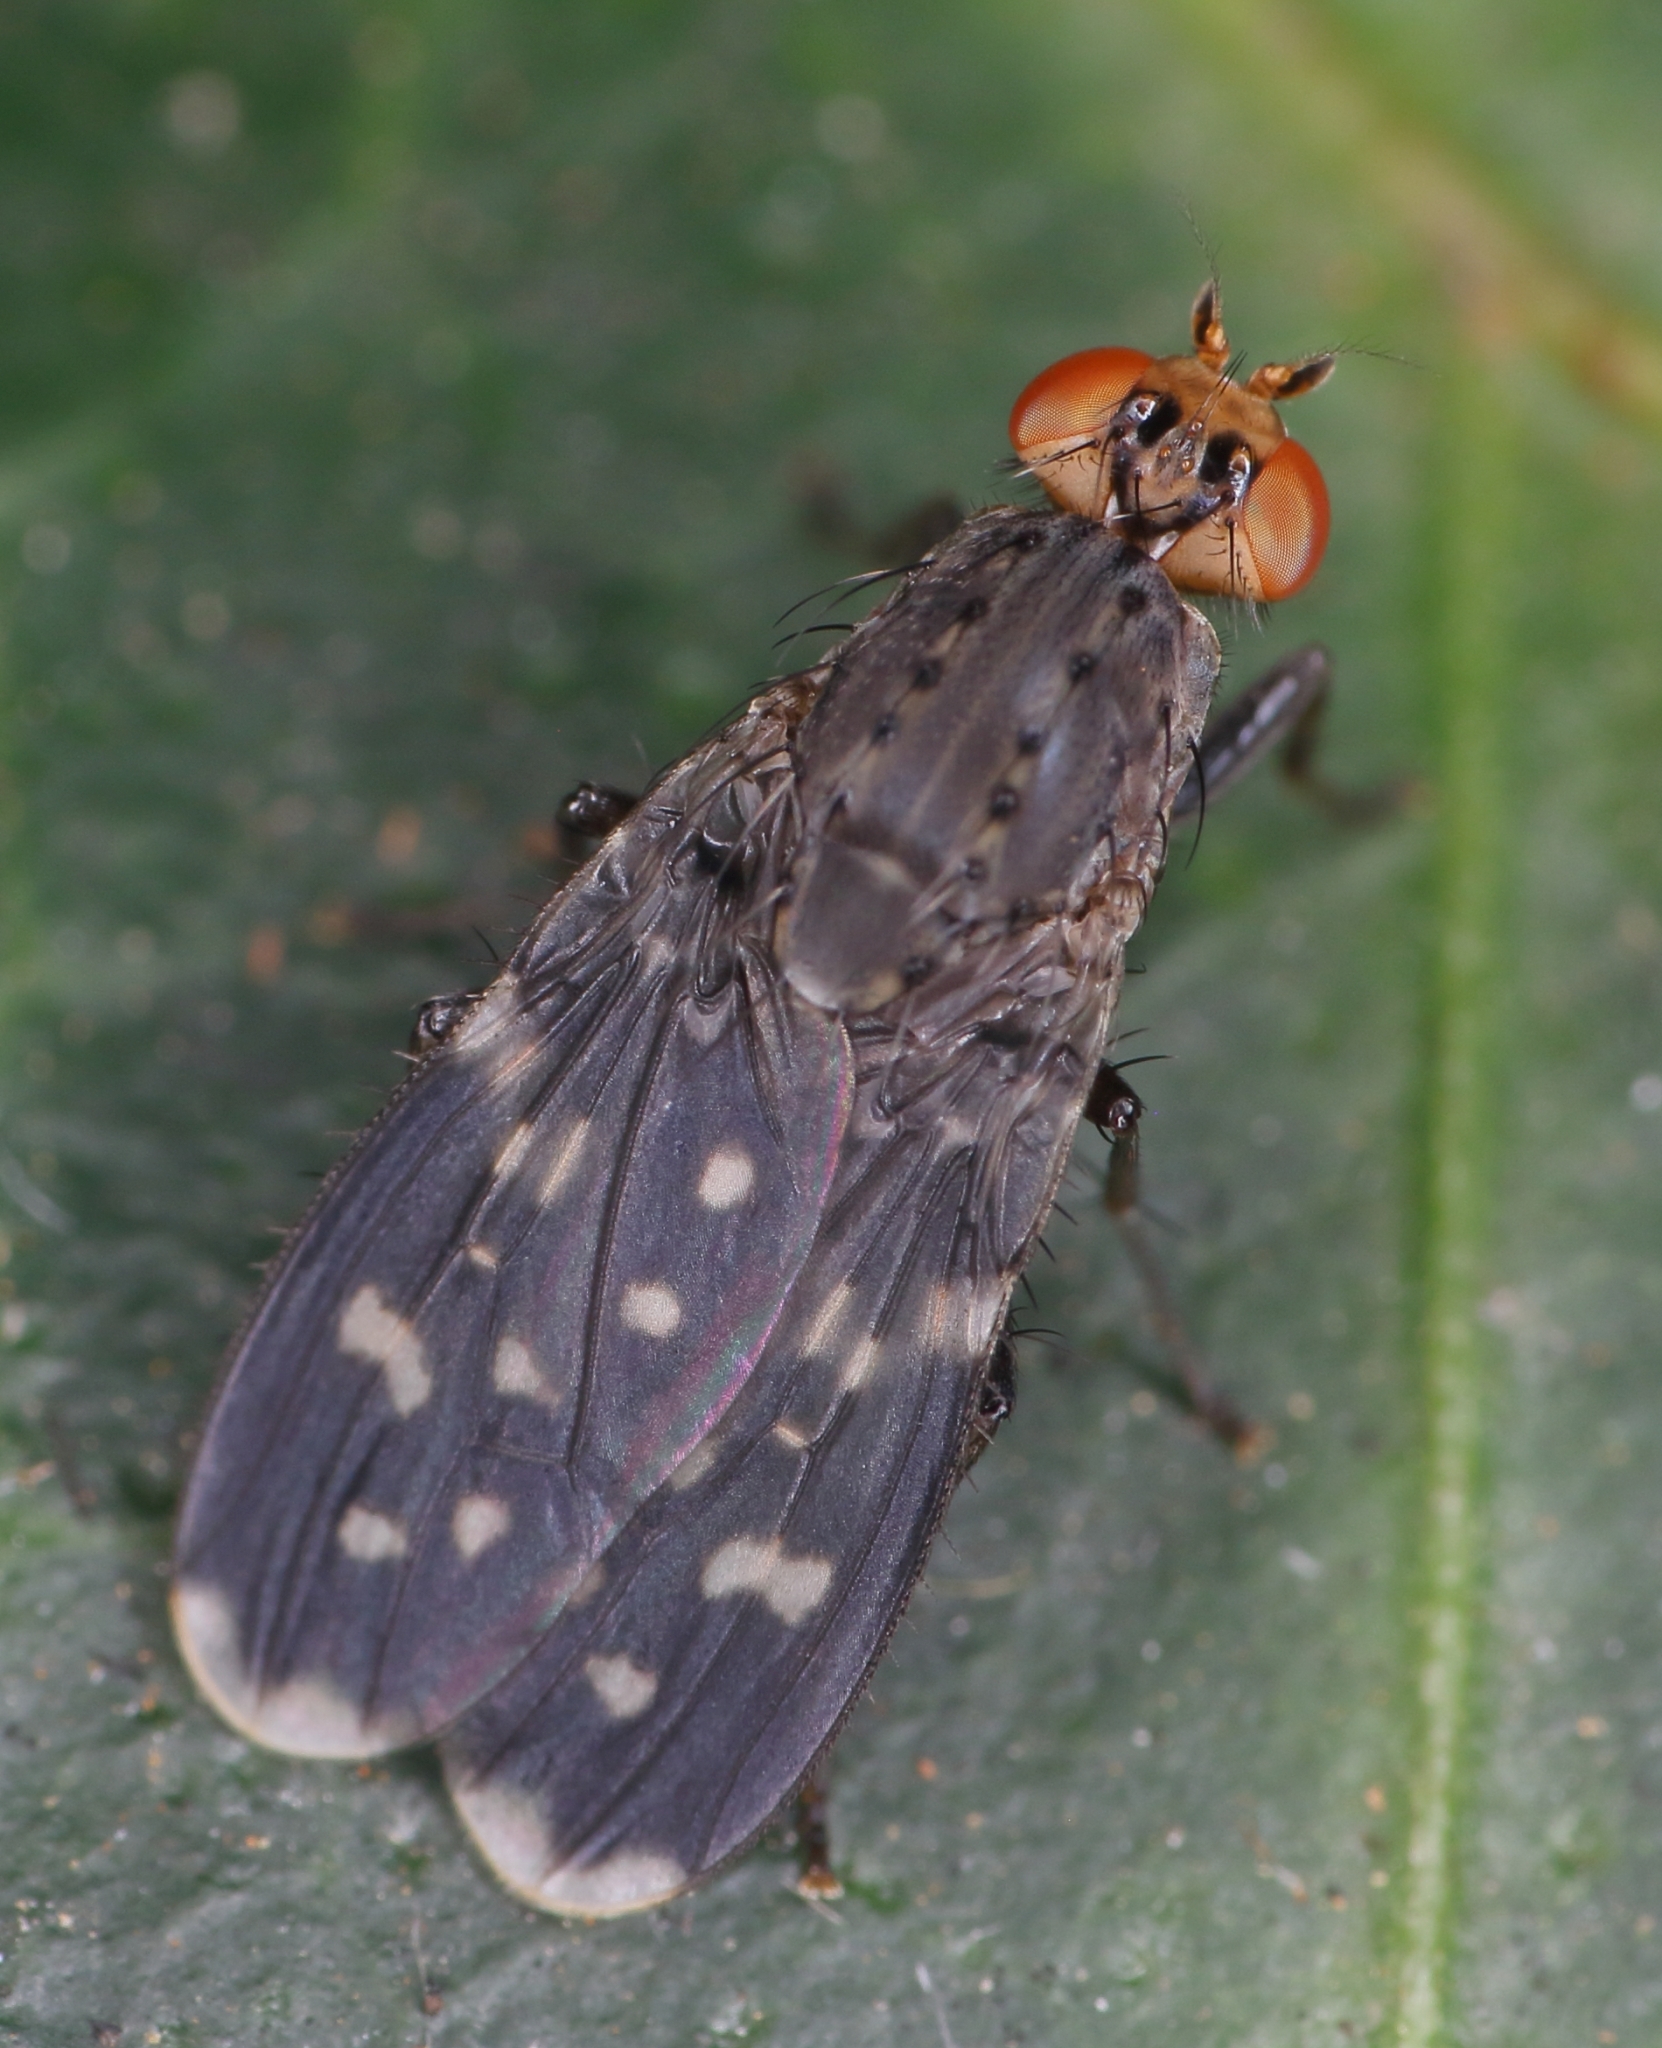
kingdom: Animalia
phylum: Arthropoda
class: Insecta
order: Diptera
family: Heleomyzidae
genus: Suillia
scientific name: Suillia picta
